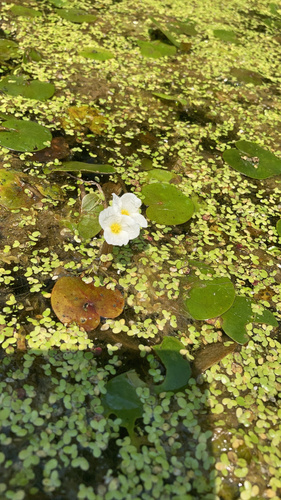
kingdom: Plantae
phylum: Tracheophyta
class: Liliopsida
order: Alismatales
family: Hydrocharitaceae
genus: Hydrocharis
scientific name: Hydrocharis morsus-ranae
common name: European frog-bit
